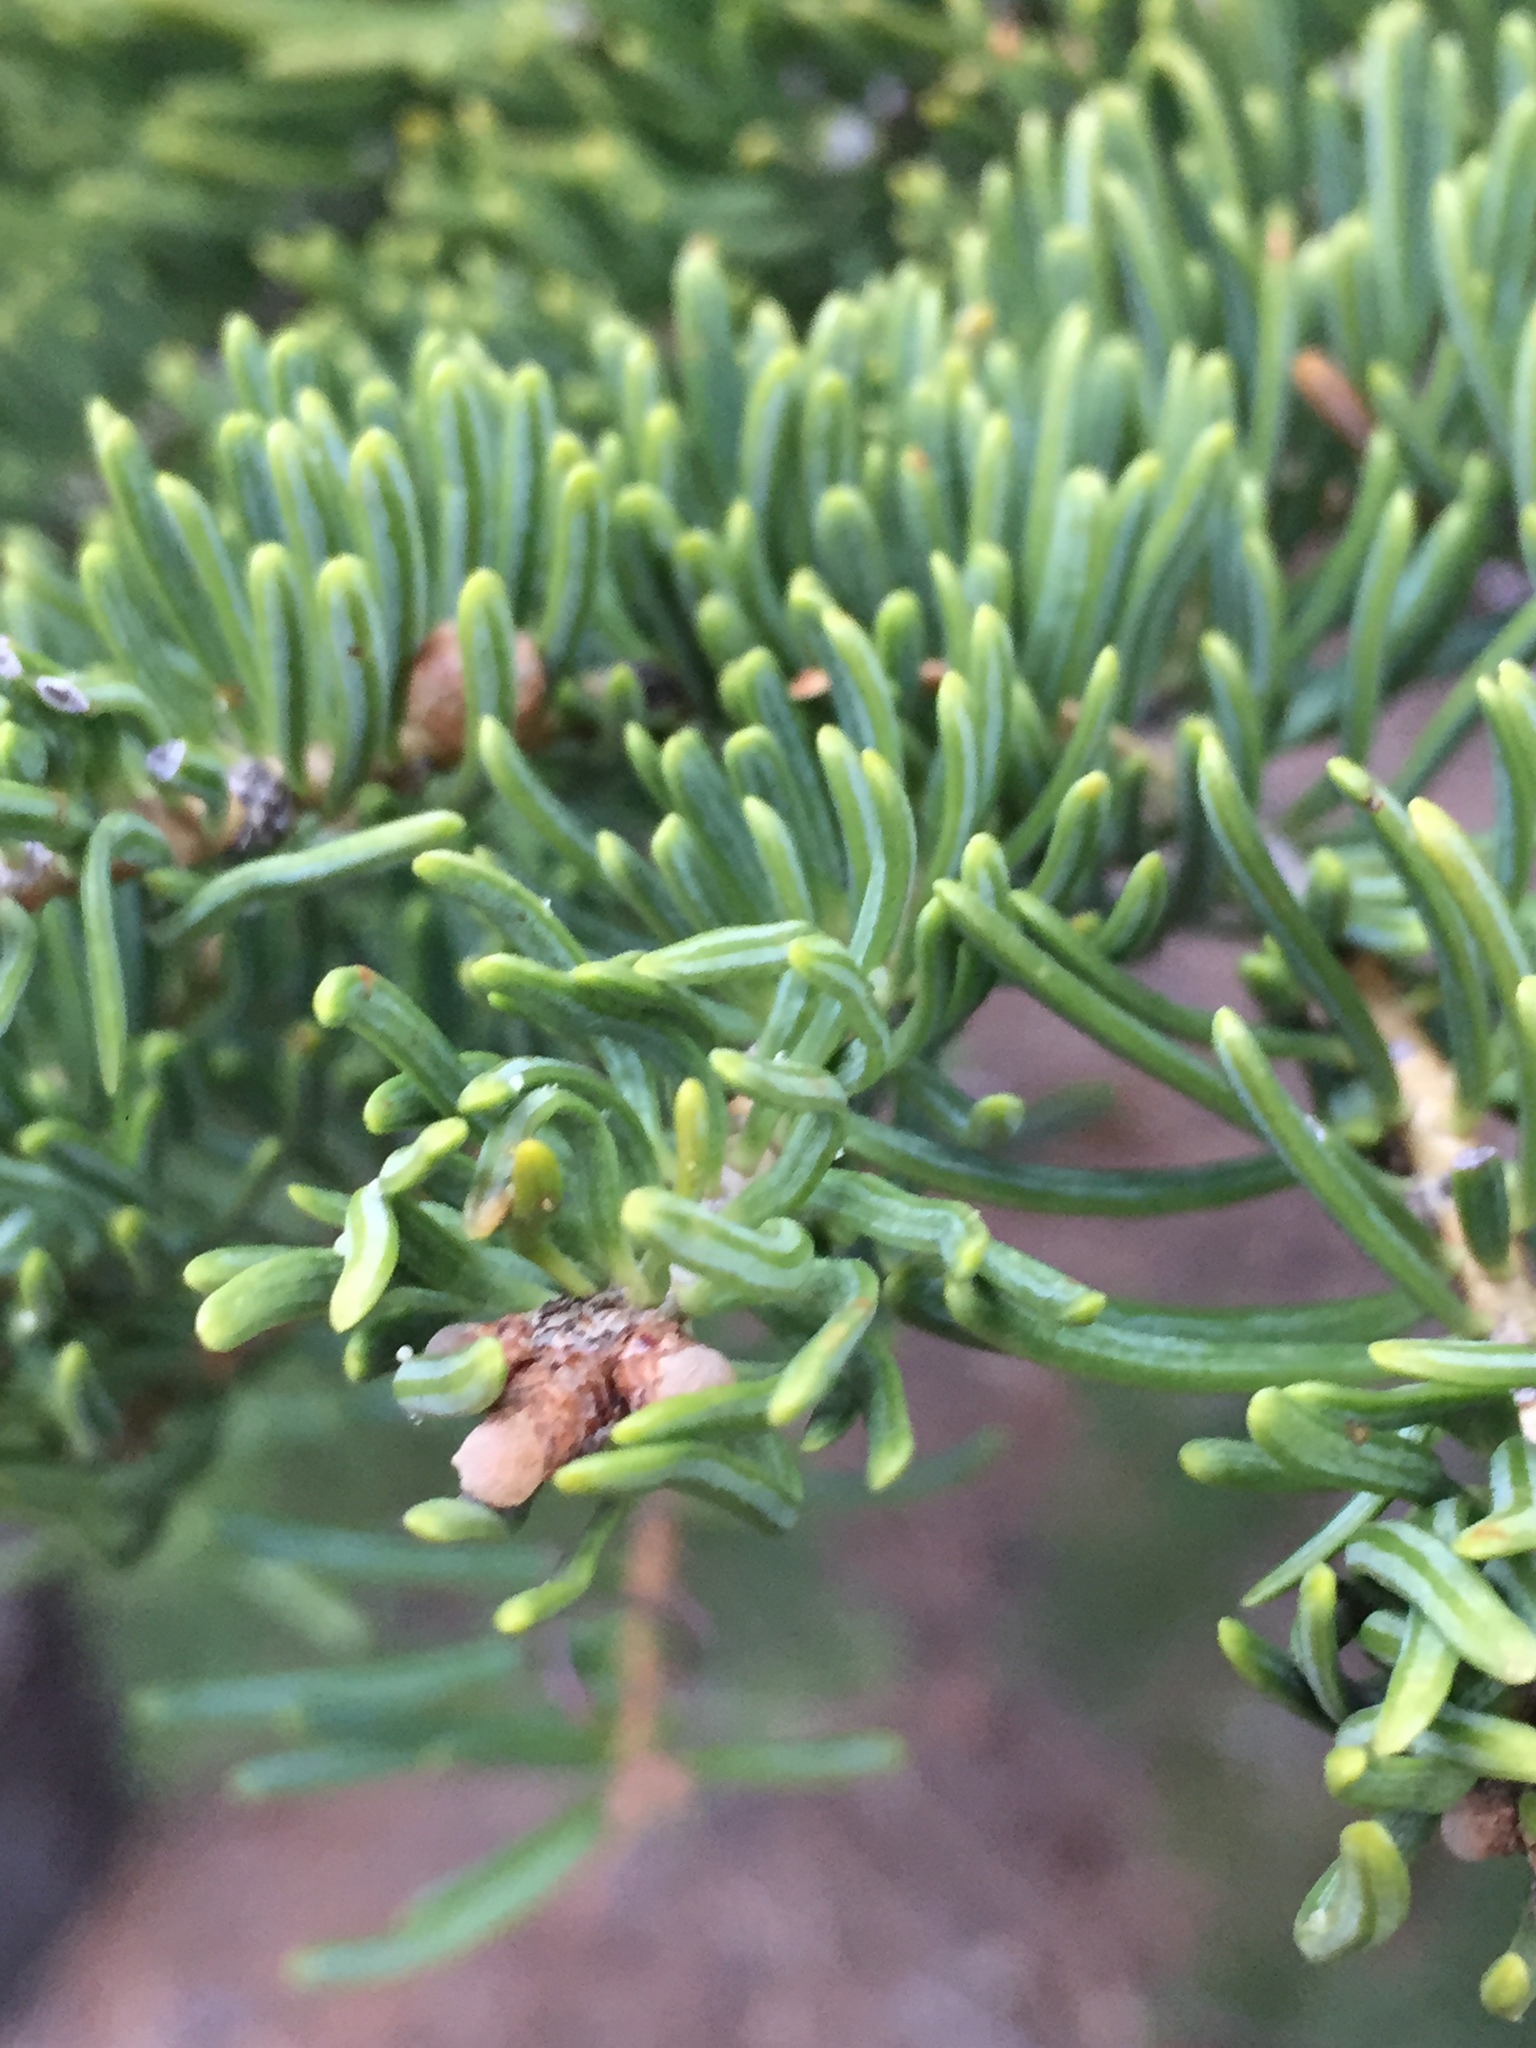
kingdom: Plantae
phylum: Tracheophyta
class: Pinopsida
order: Pinales
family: Pinaceae
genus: Abies
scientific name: Abies concolor
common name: Colorado fir
